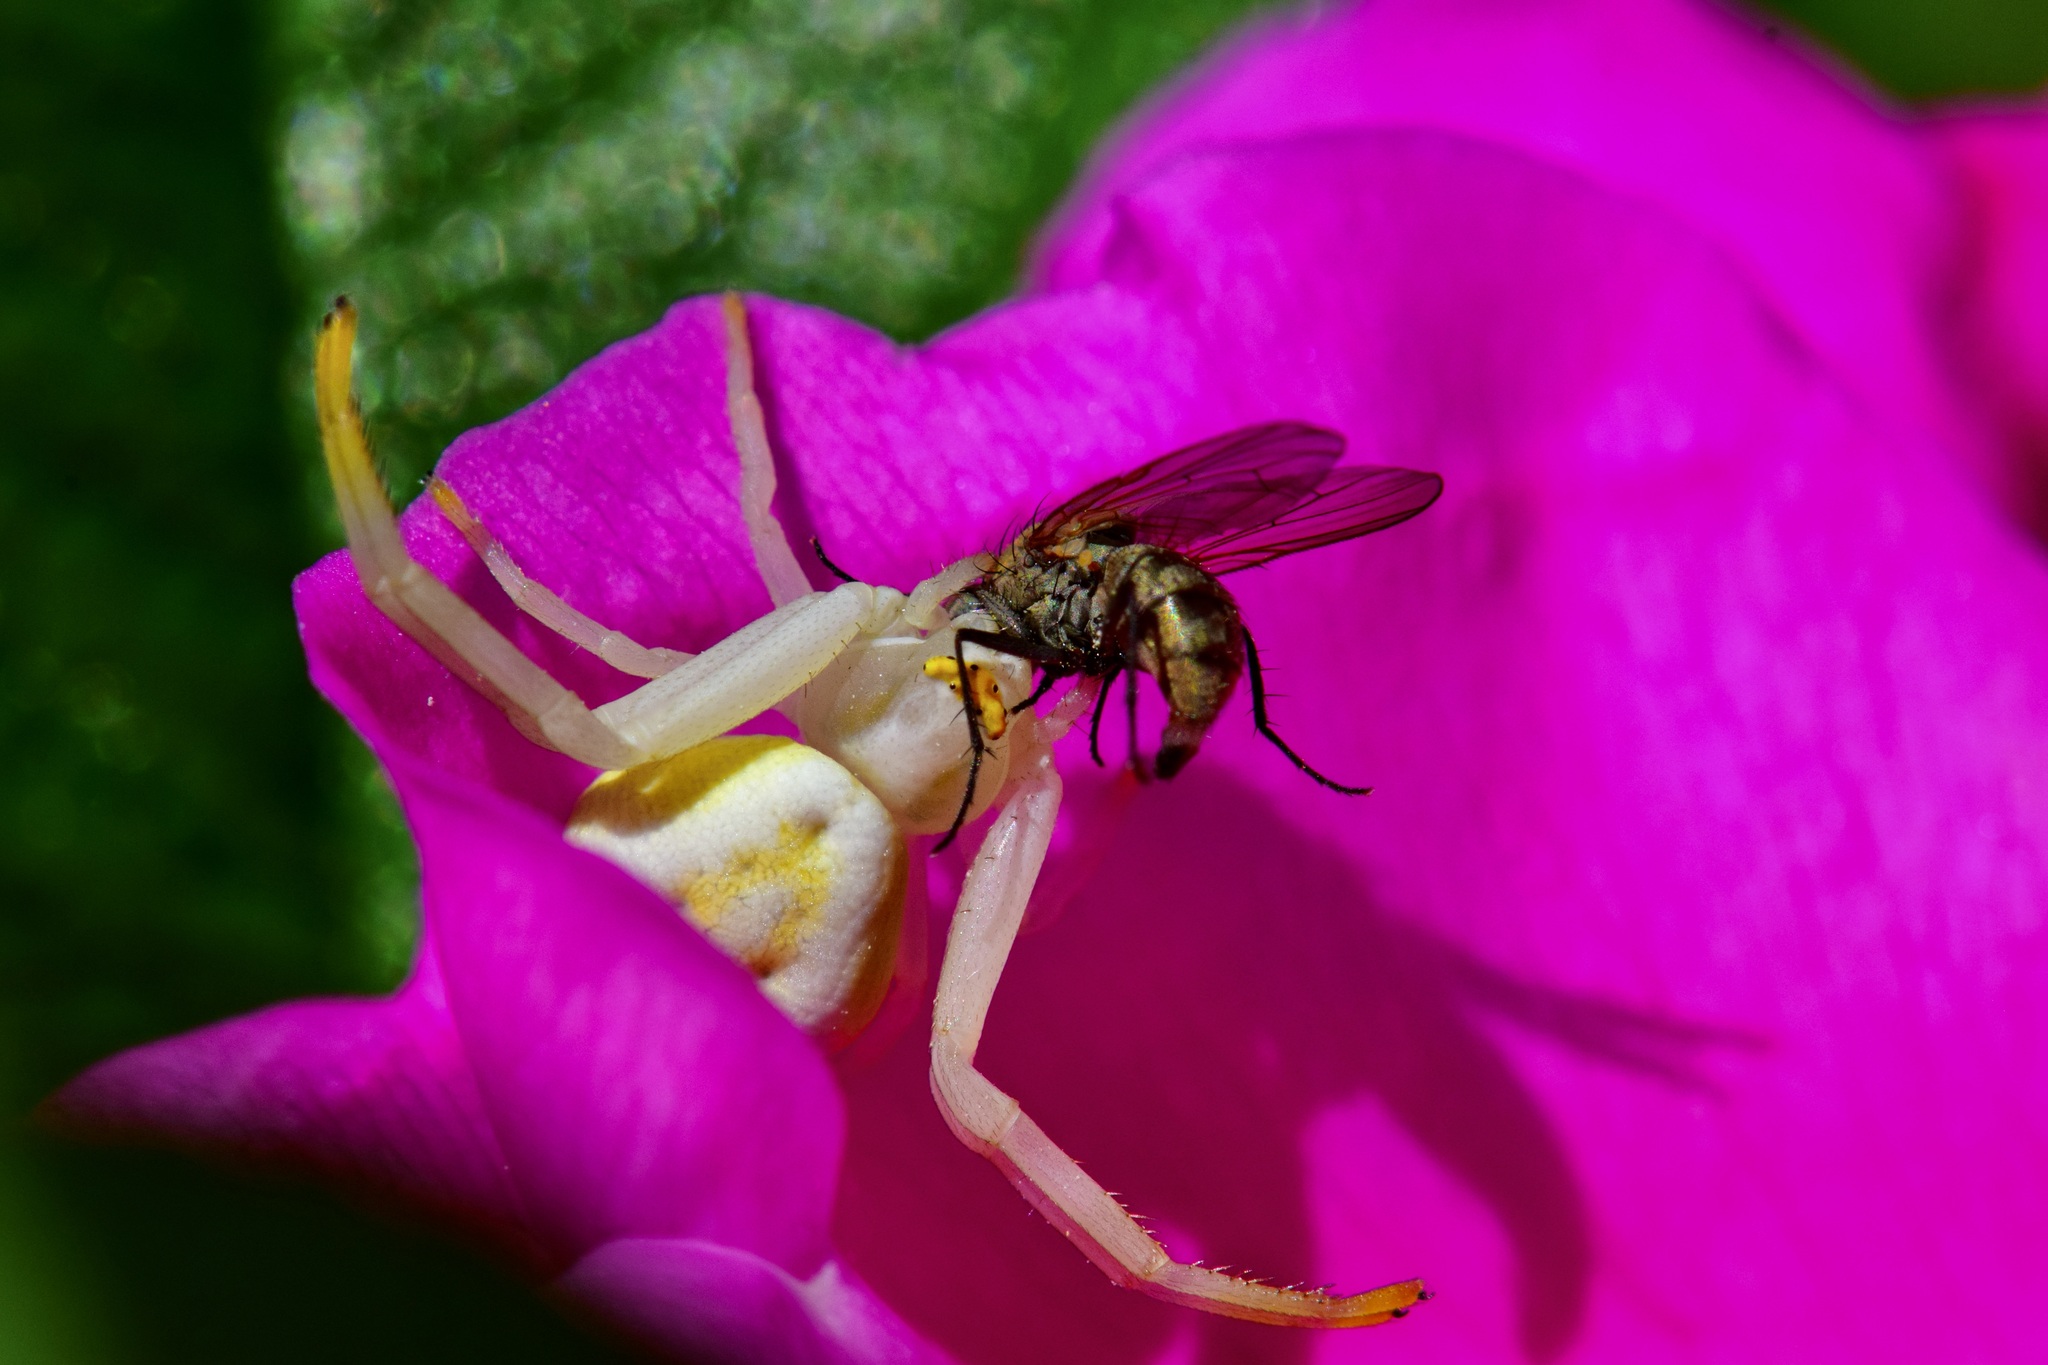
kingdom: Animalia
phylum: Arthropoda
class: Arachnida
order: Araneae
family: Thomisidae
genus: Misumena
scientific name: Misumena vatia
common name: Goldenrod crab spider
